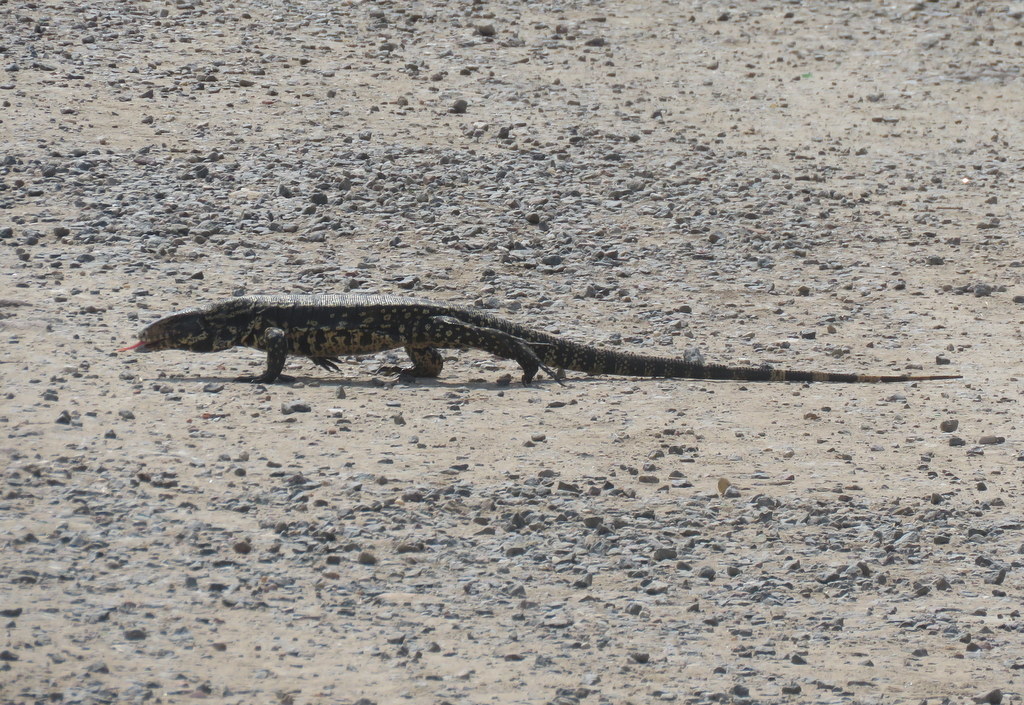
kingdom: Animalia
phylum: Chordata
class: Squamata
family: Teiidae
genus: Salvator
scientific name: Salvator merianae
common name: Argentine black and white tegu
